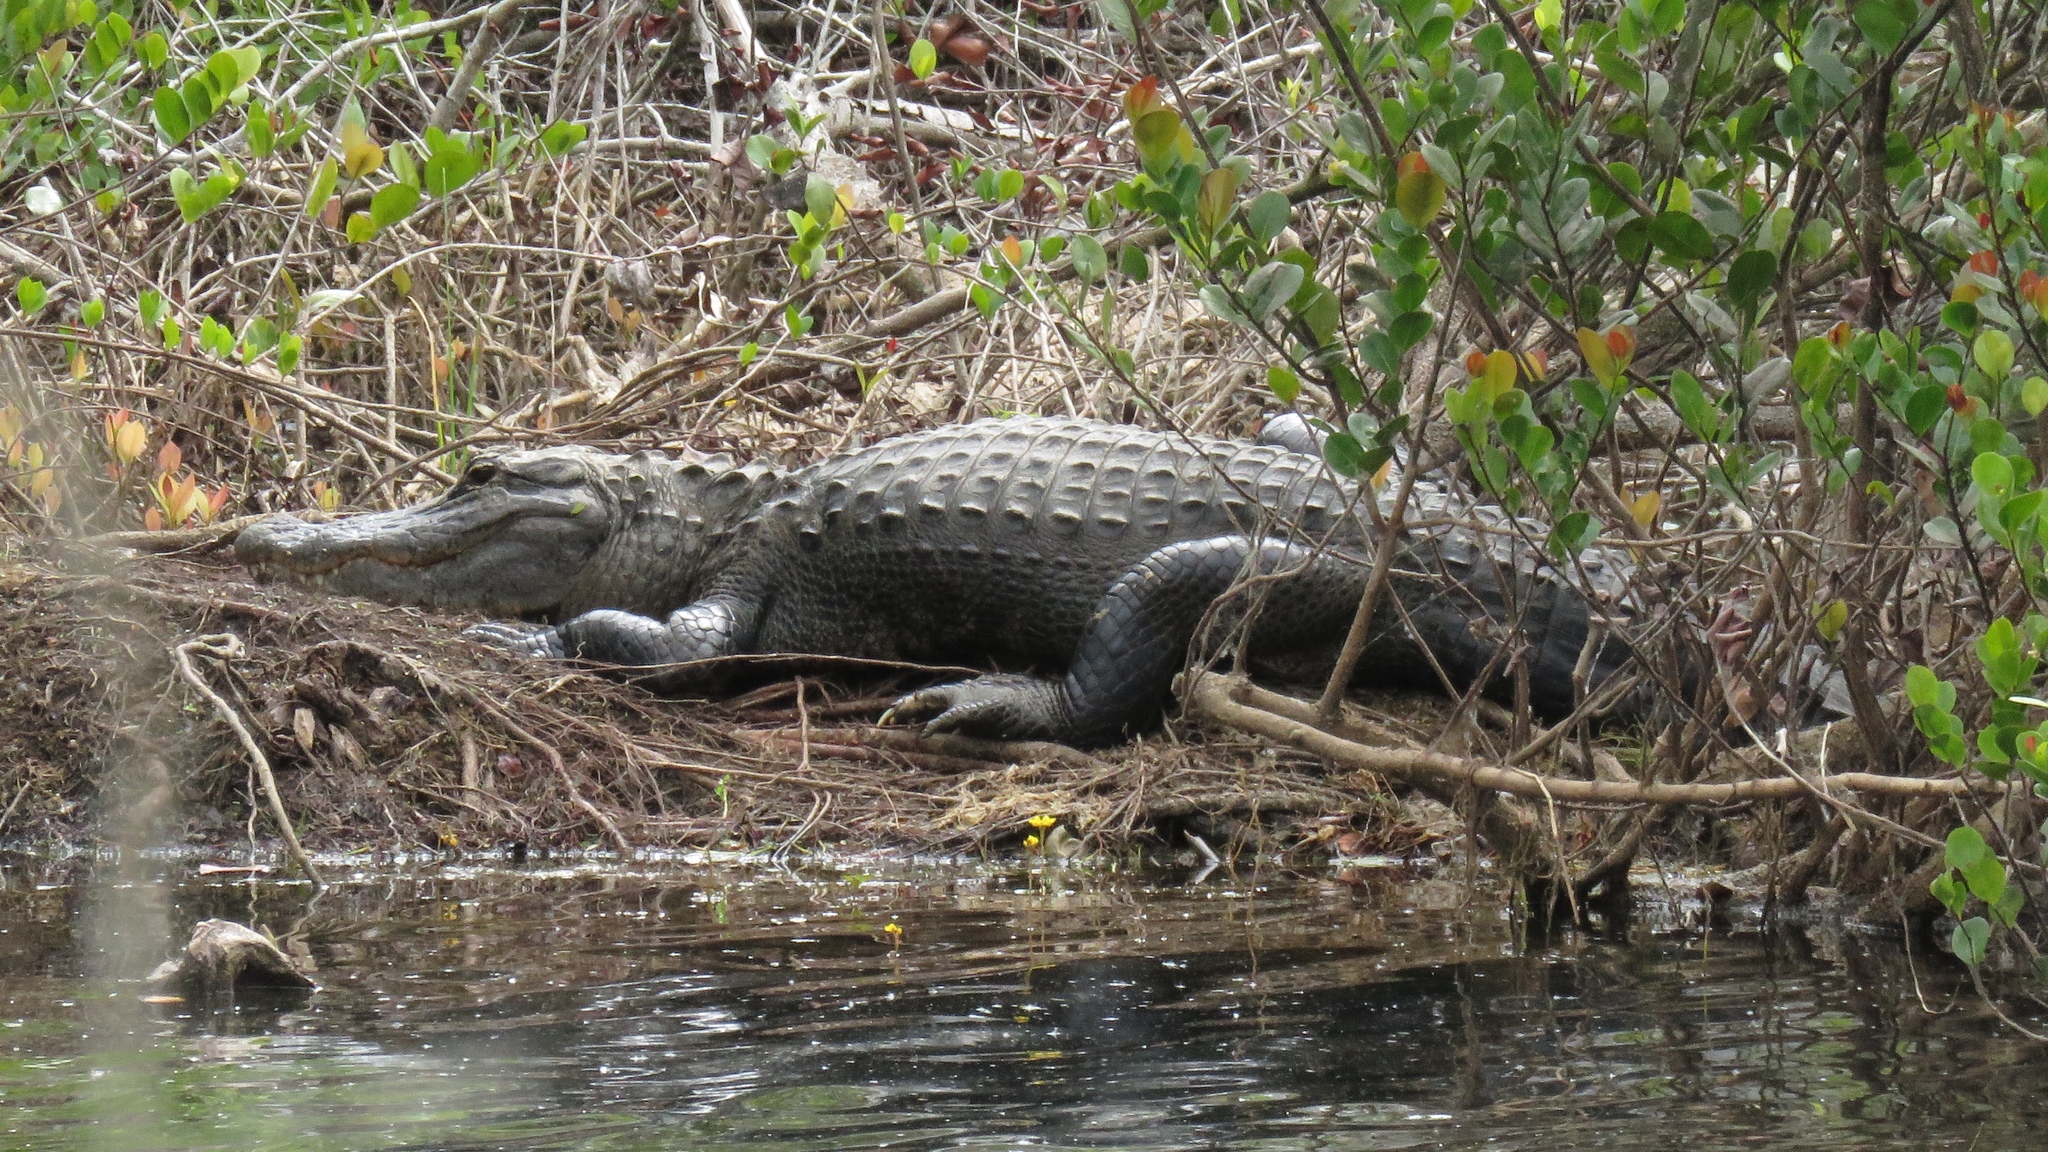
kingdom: Animalia
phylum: Chordata
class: Crocodylia
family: Alligatoridae
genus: Alligator
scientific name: Alligator mississippiensis
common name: American alligator
